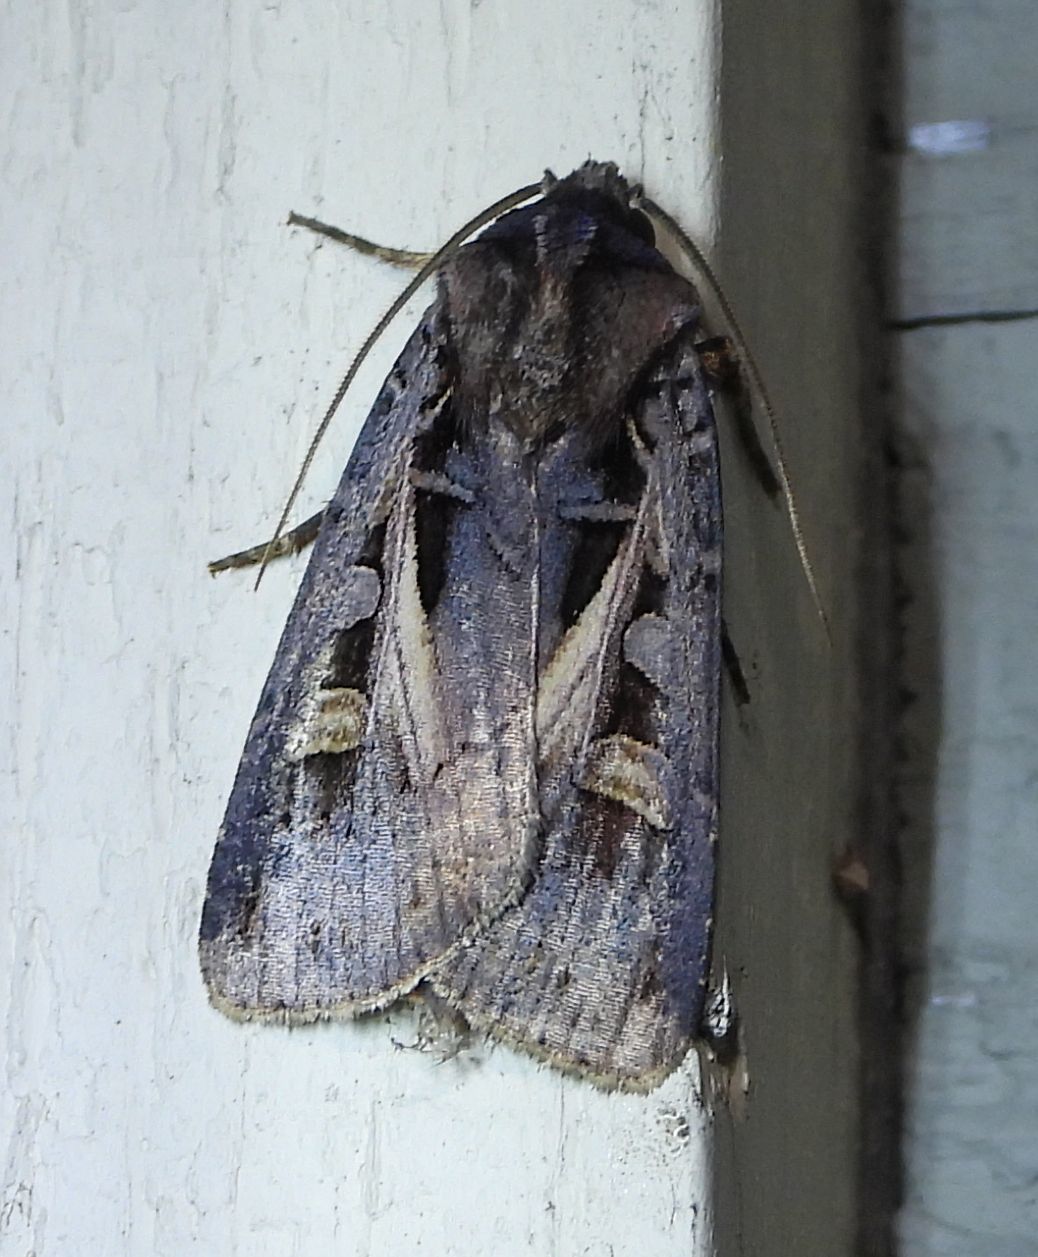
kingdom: Animalia
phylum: Arthropoda
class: Insecta
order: Lepidoptera
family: Noctuidae
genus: Feltia
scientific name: Feltia herilis
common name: Master's dart
